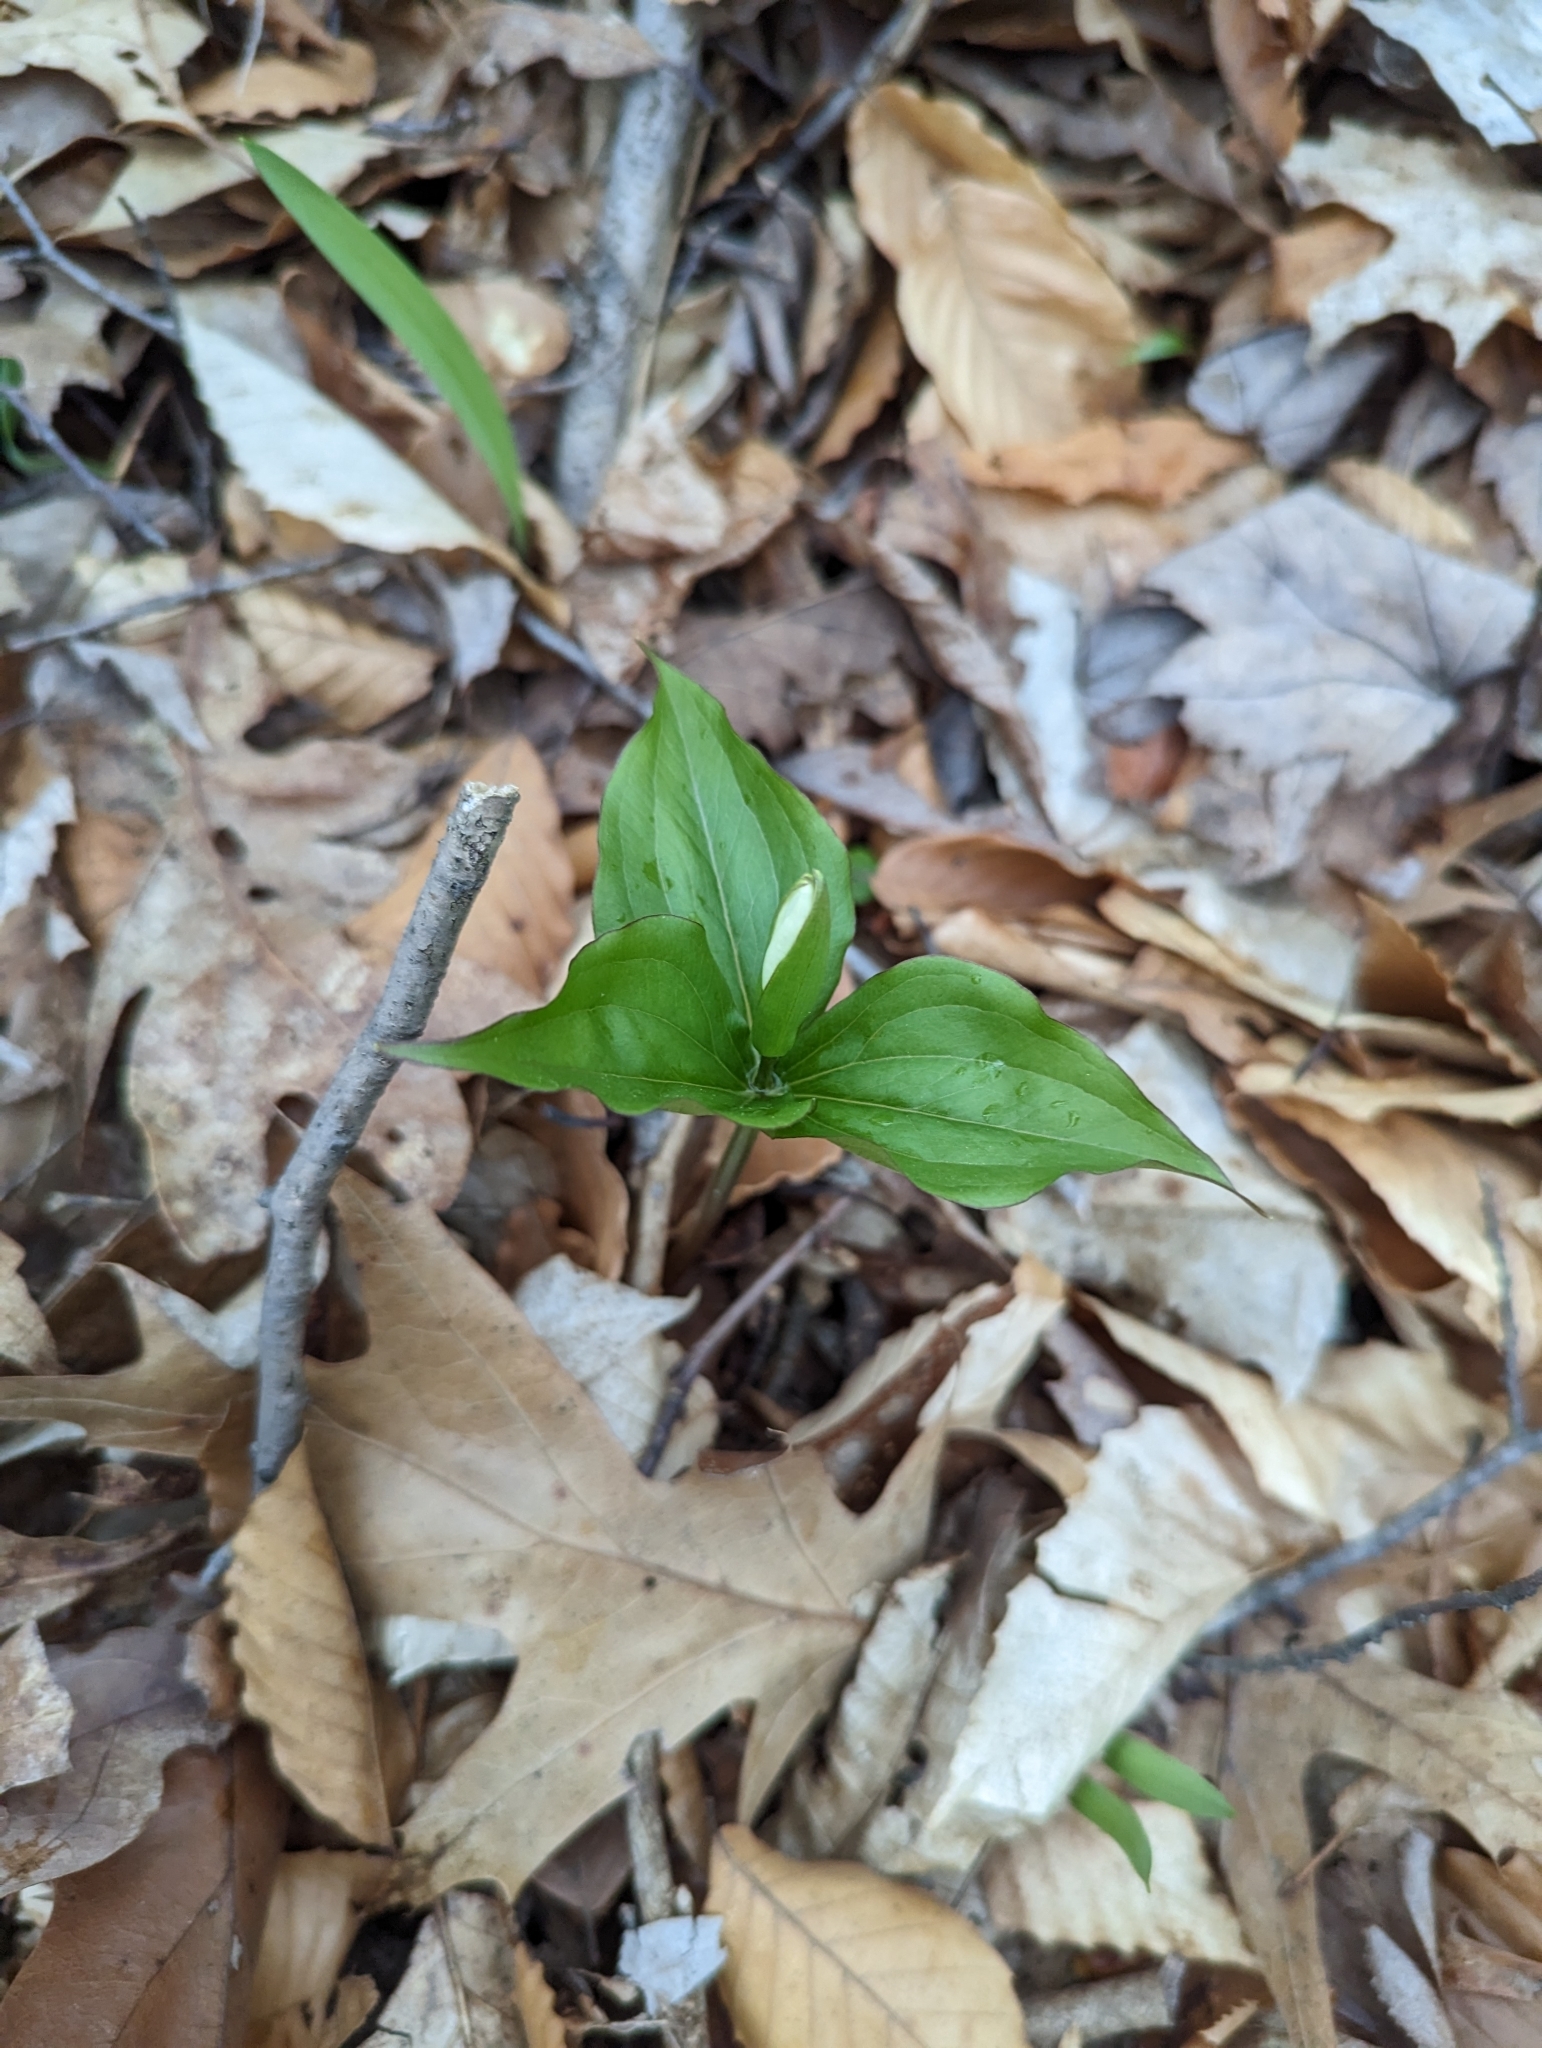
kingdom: Plantae
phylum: Tracheophyta
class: Liliopsida
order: Liliales
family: Melanthiaceae
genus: Trillium
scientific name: Trillium grandiflorum
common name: Great white trillium
